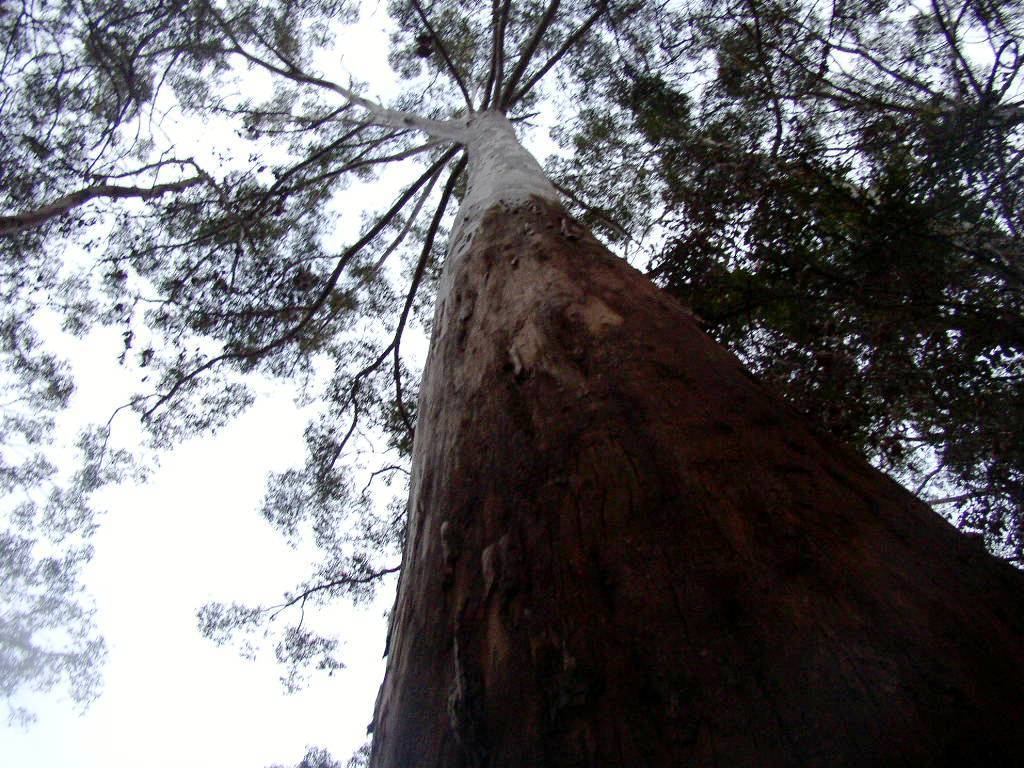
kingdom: Plantae
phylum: Tracheophyta
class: Magnoliopsida
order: Myrtales
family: Myrtaceae
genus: Eucalyptus
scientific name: Eucalyptus diversicolor
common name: Karri
